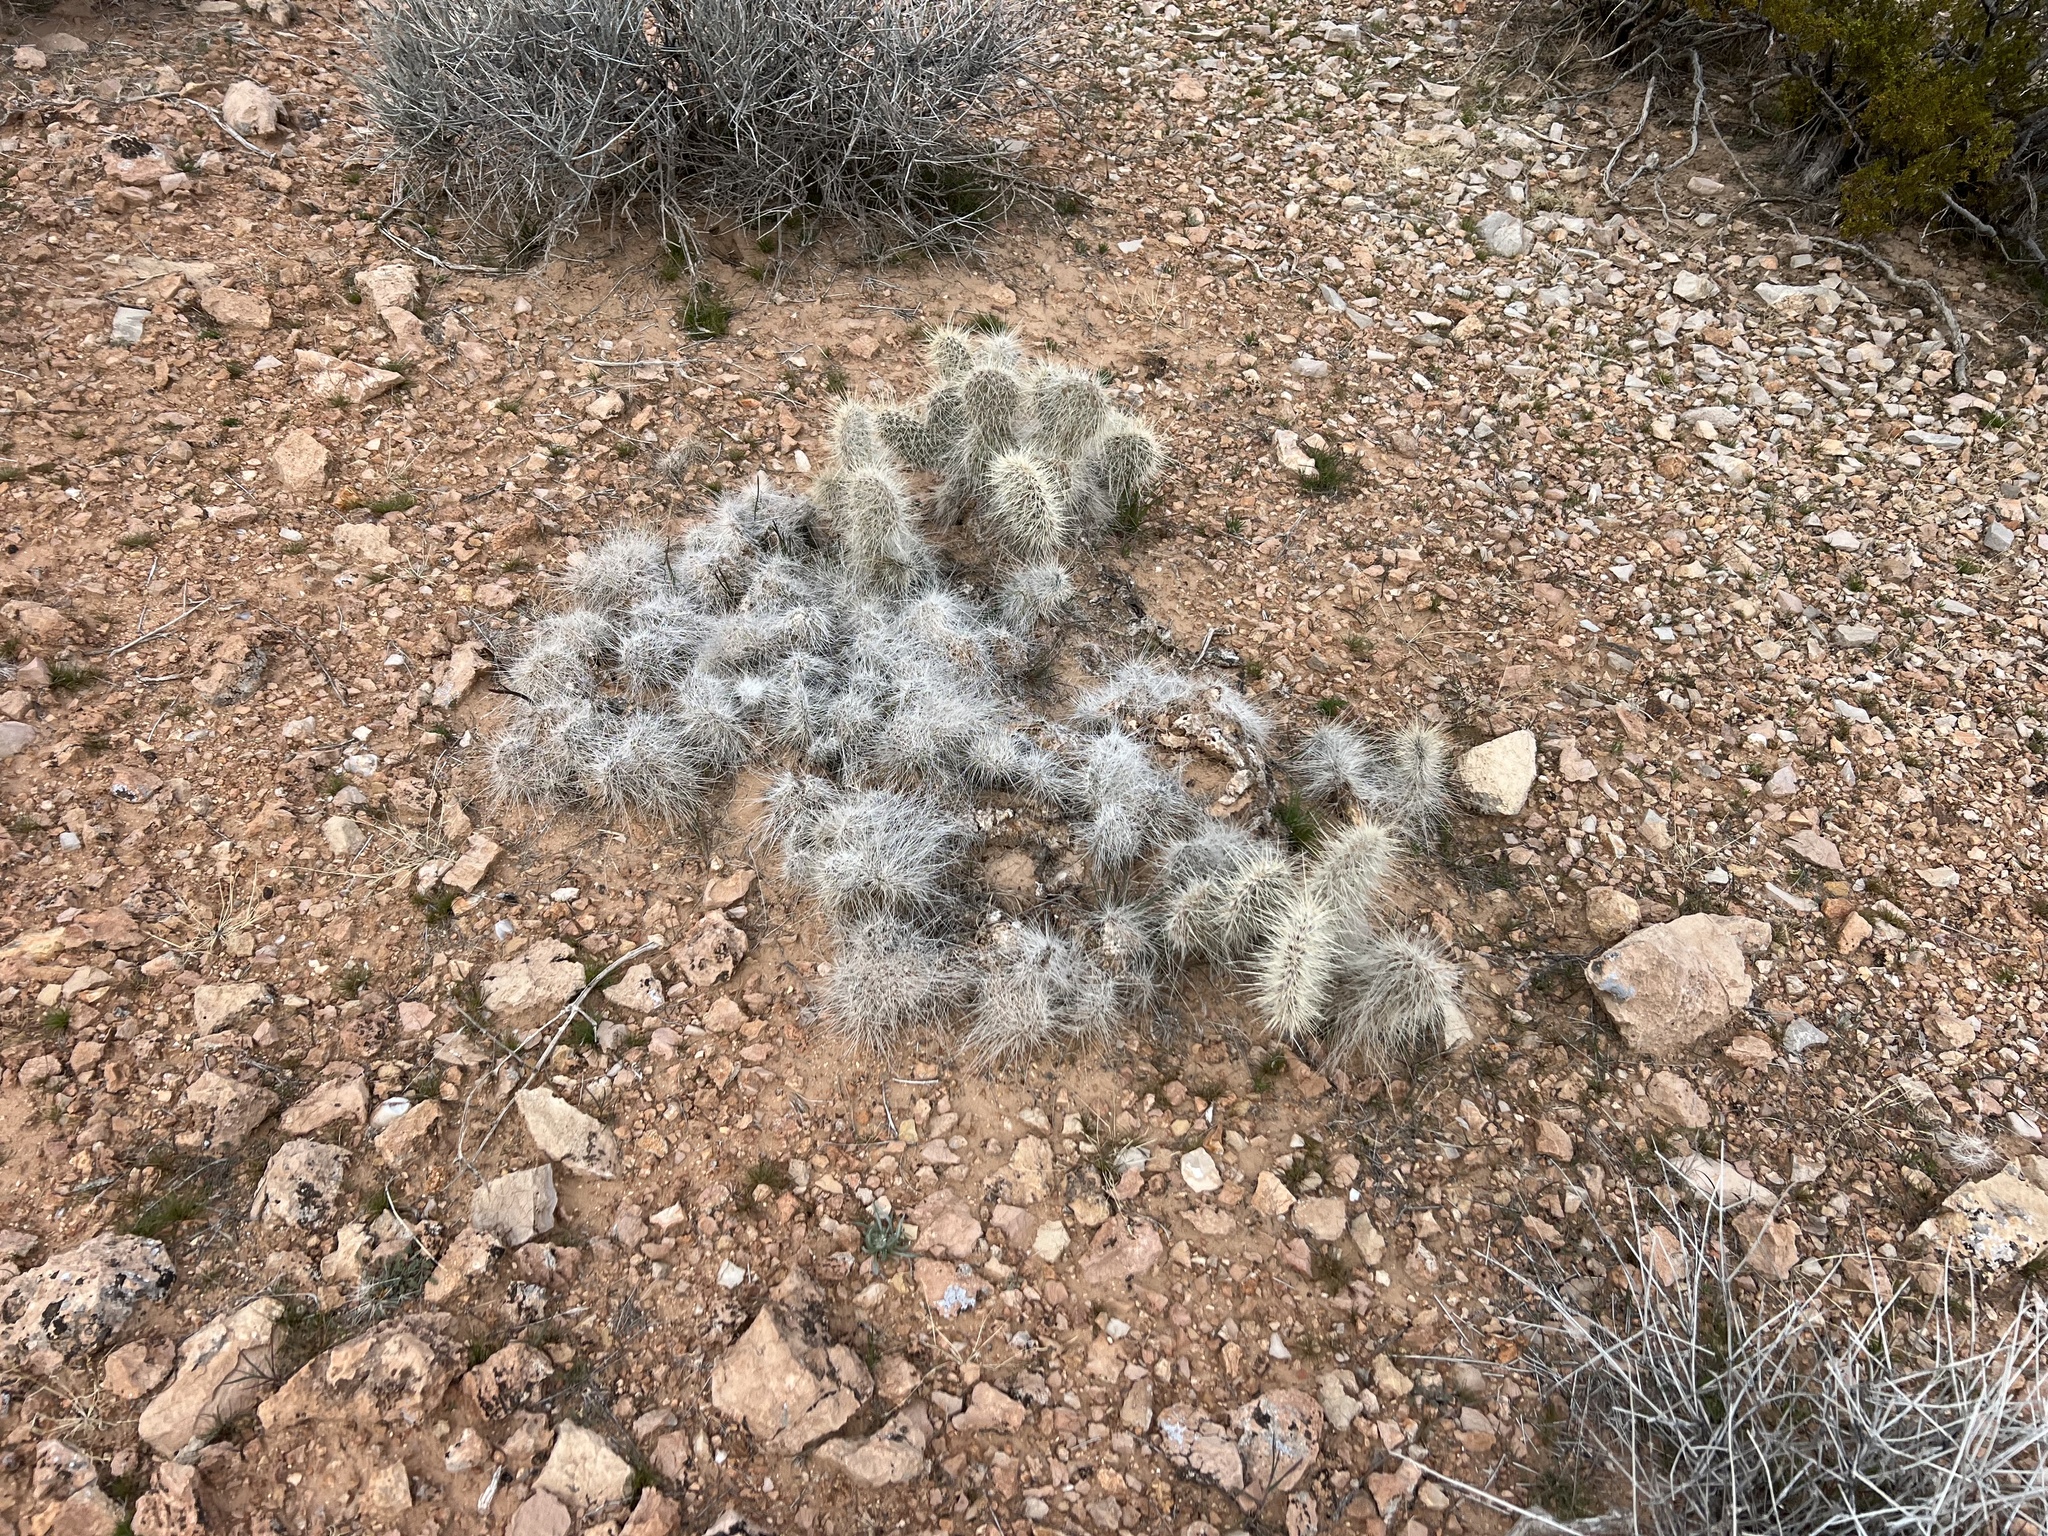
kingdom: Plantae
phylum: Tracheophyta
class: Magnoliopsida
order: Caryophyllales
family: Cactaceae
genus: Opuntia
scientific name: Opuntia polyacantha
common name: Plains prickly-pear
